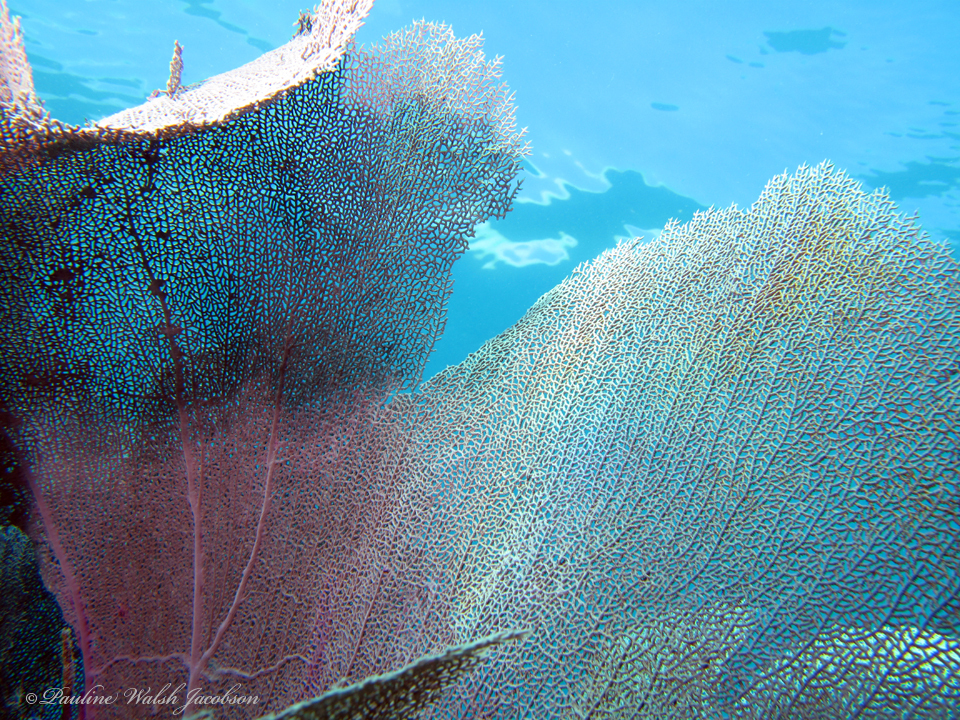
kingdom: Animalia
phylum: Cnidaria
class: Anthozoa
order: Malacalcyonacea
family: Gorgoniidae
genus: Gorgonia
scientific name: Gorgonia ventalina
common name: Common sea fan
